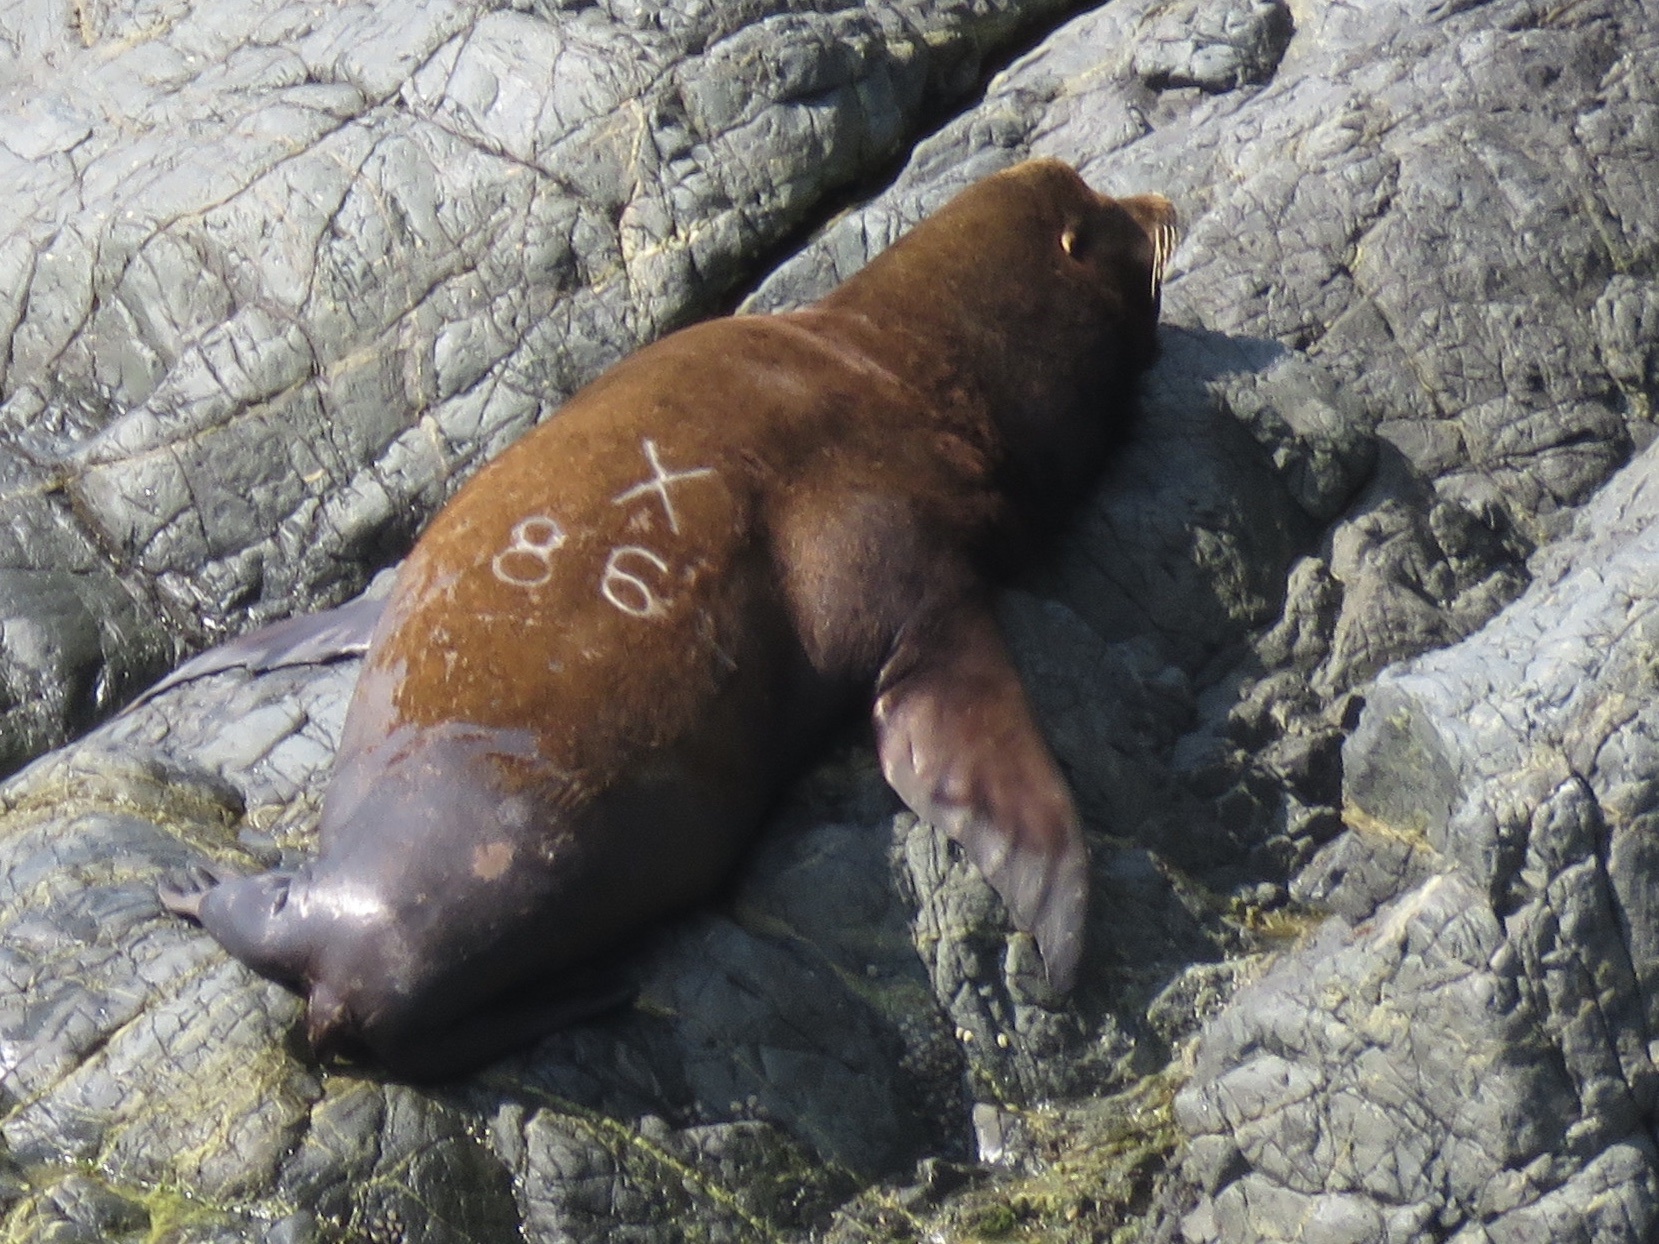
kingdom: Animalia
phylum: Chordata
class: Mammalia
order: Carnivora
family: Otariidae
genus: Zalophus
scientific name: Zalophus californianus
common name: California sea lion
